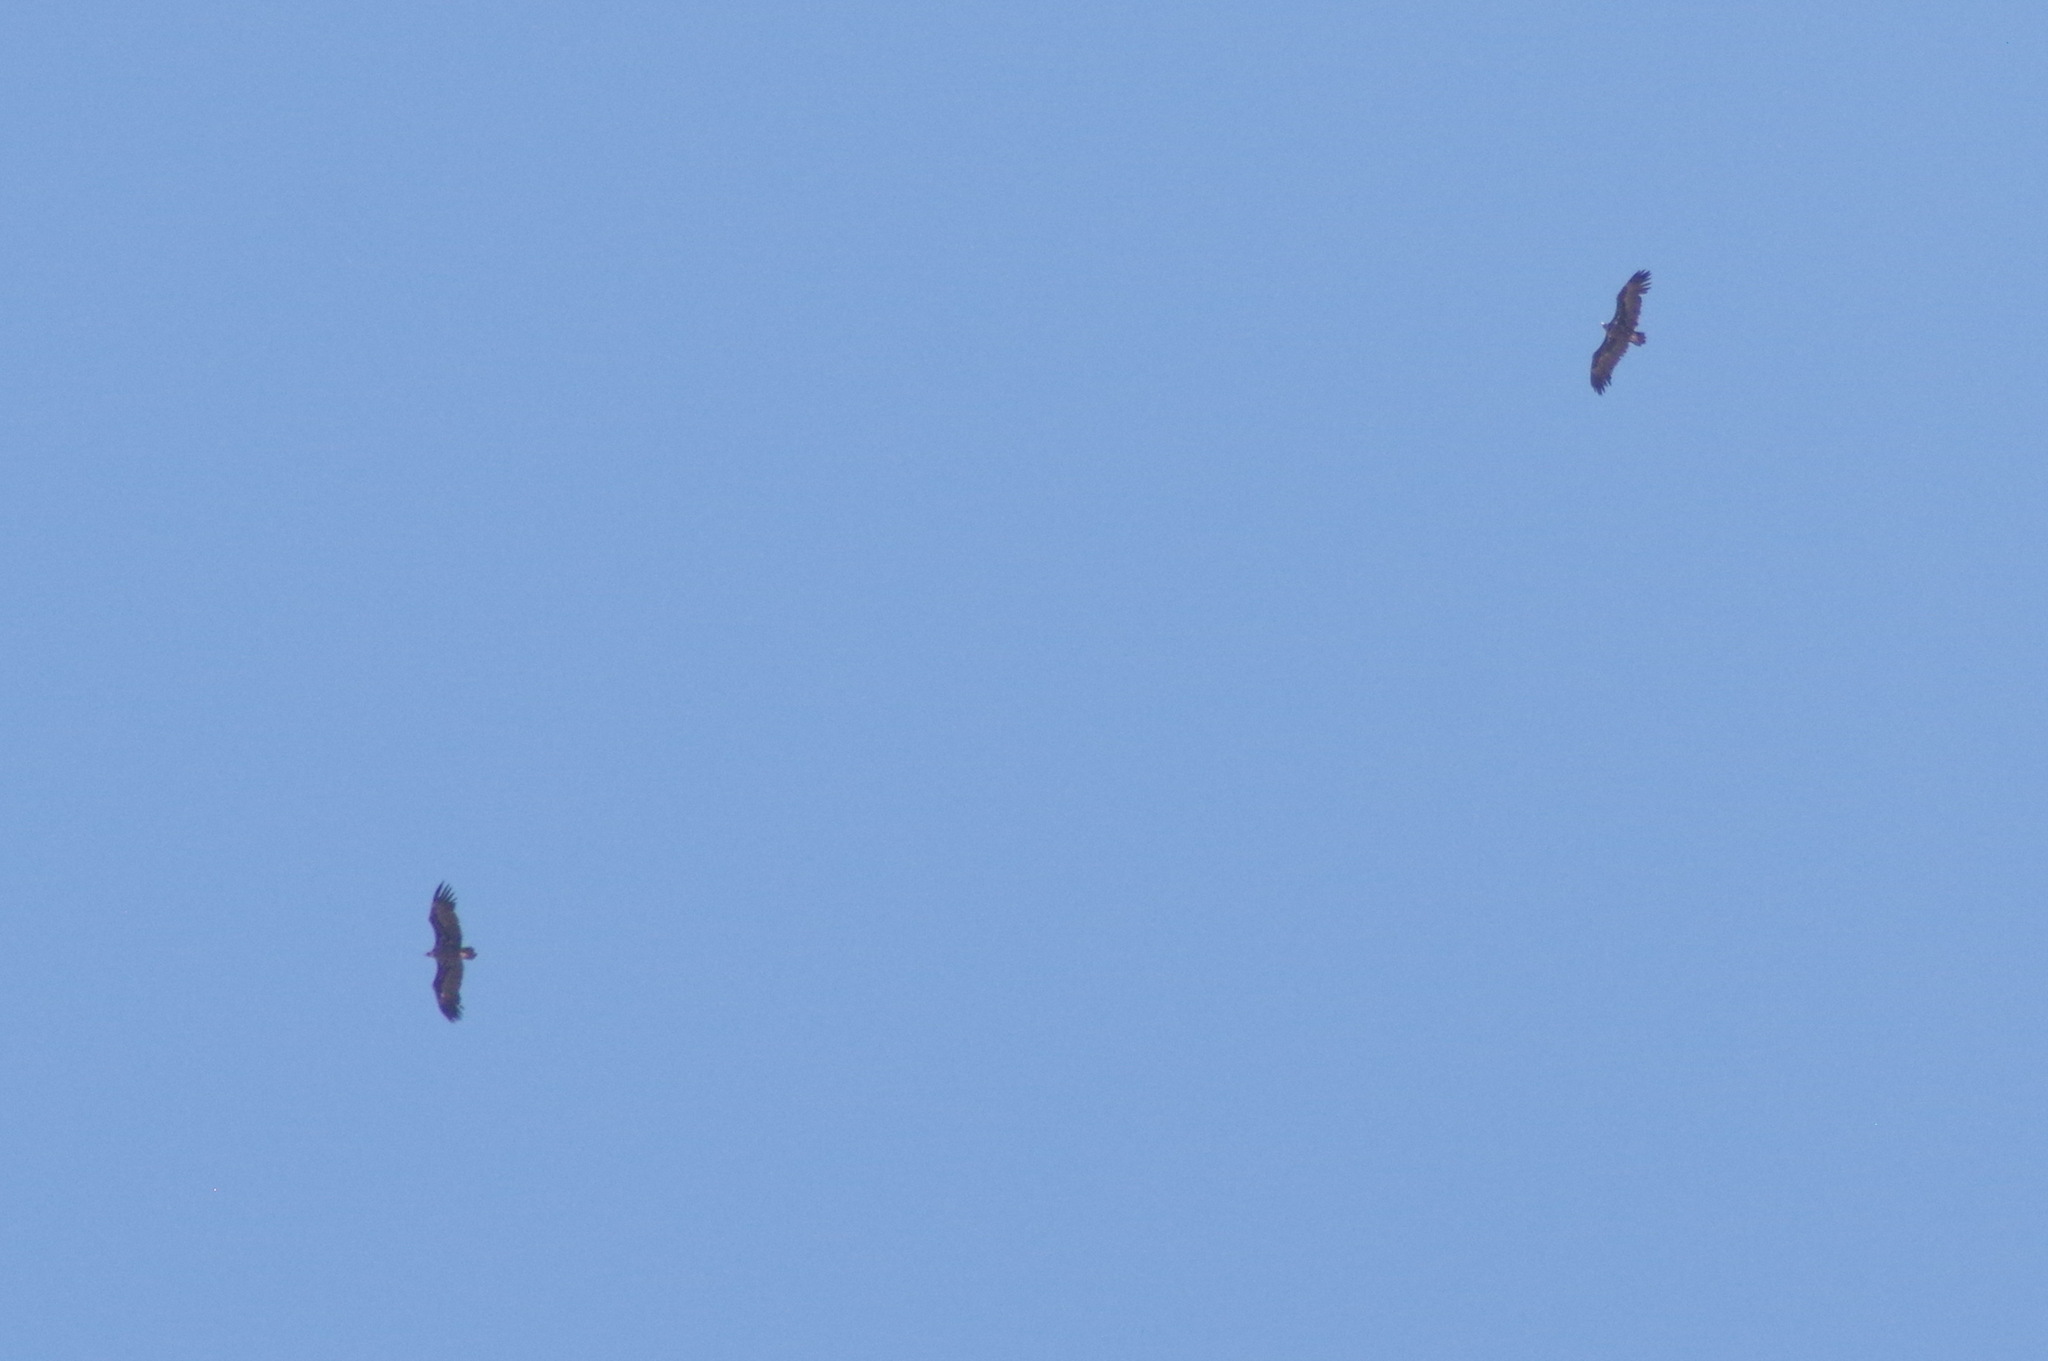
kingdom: Animalia
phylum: Chordata
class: Aves
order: Accipitriformes
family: Accipitridae
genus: Aegypius
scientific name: Aegypius monachus
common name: Cinereous vulture
